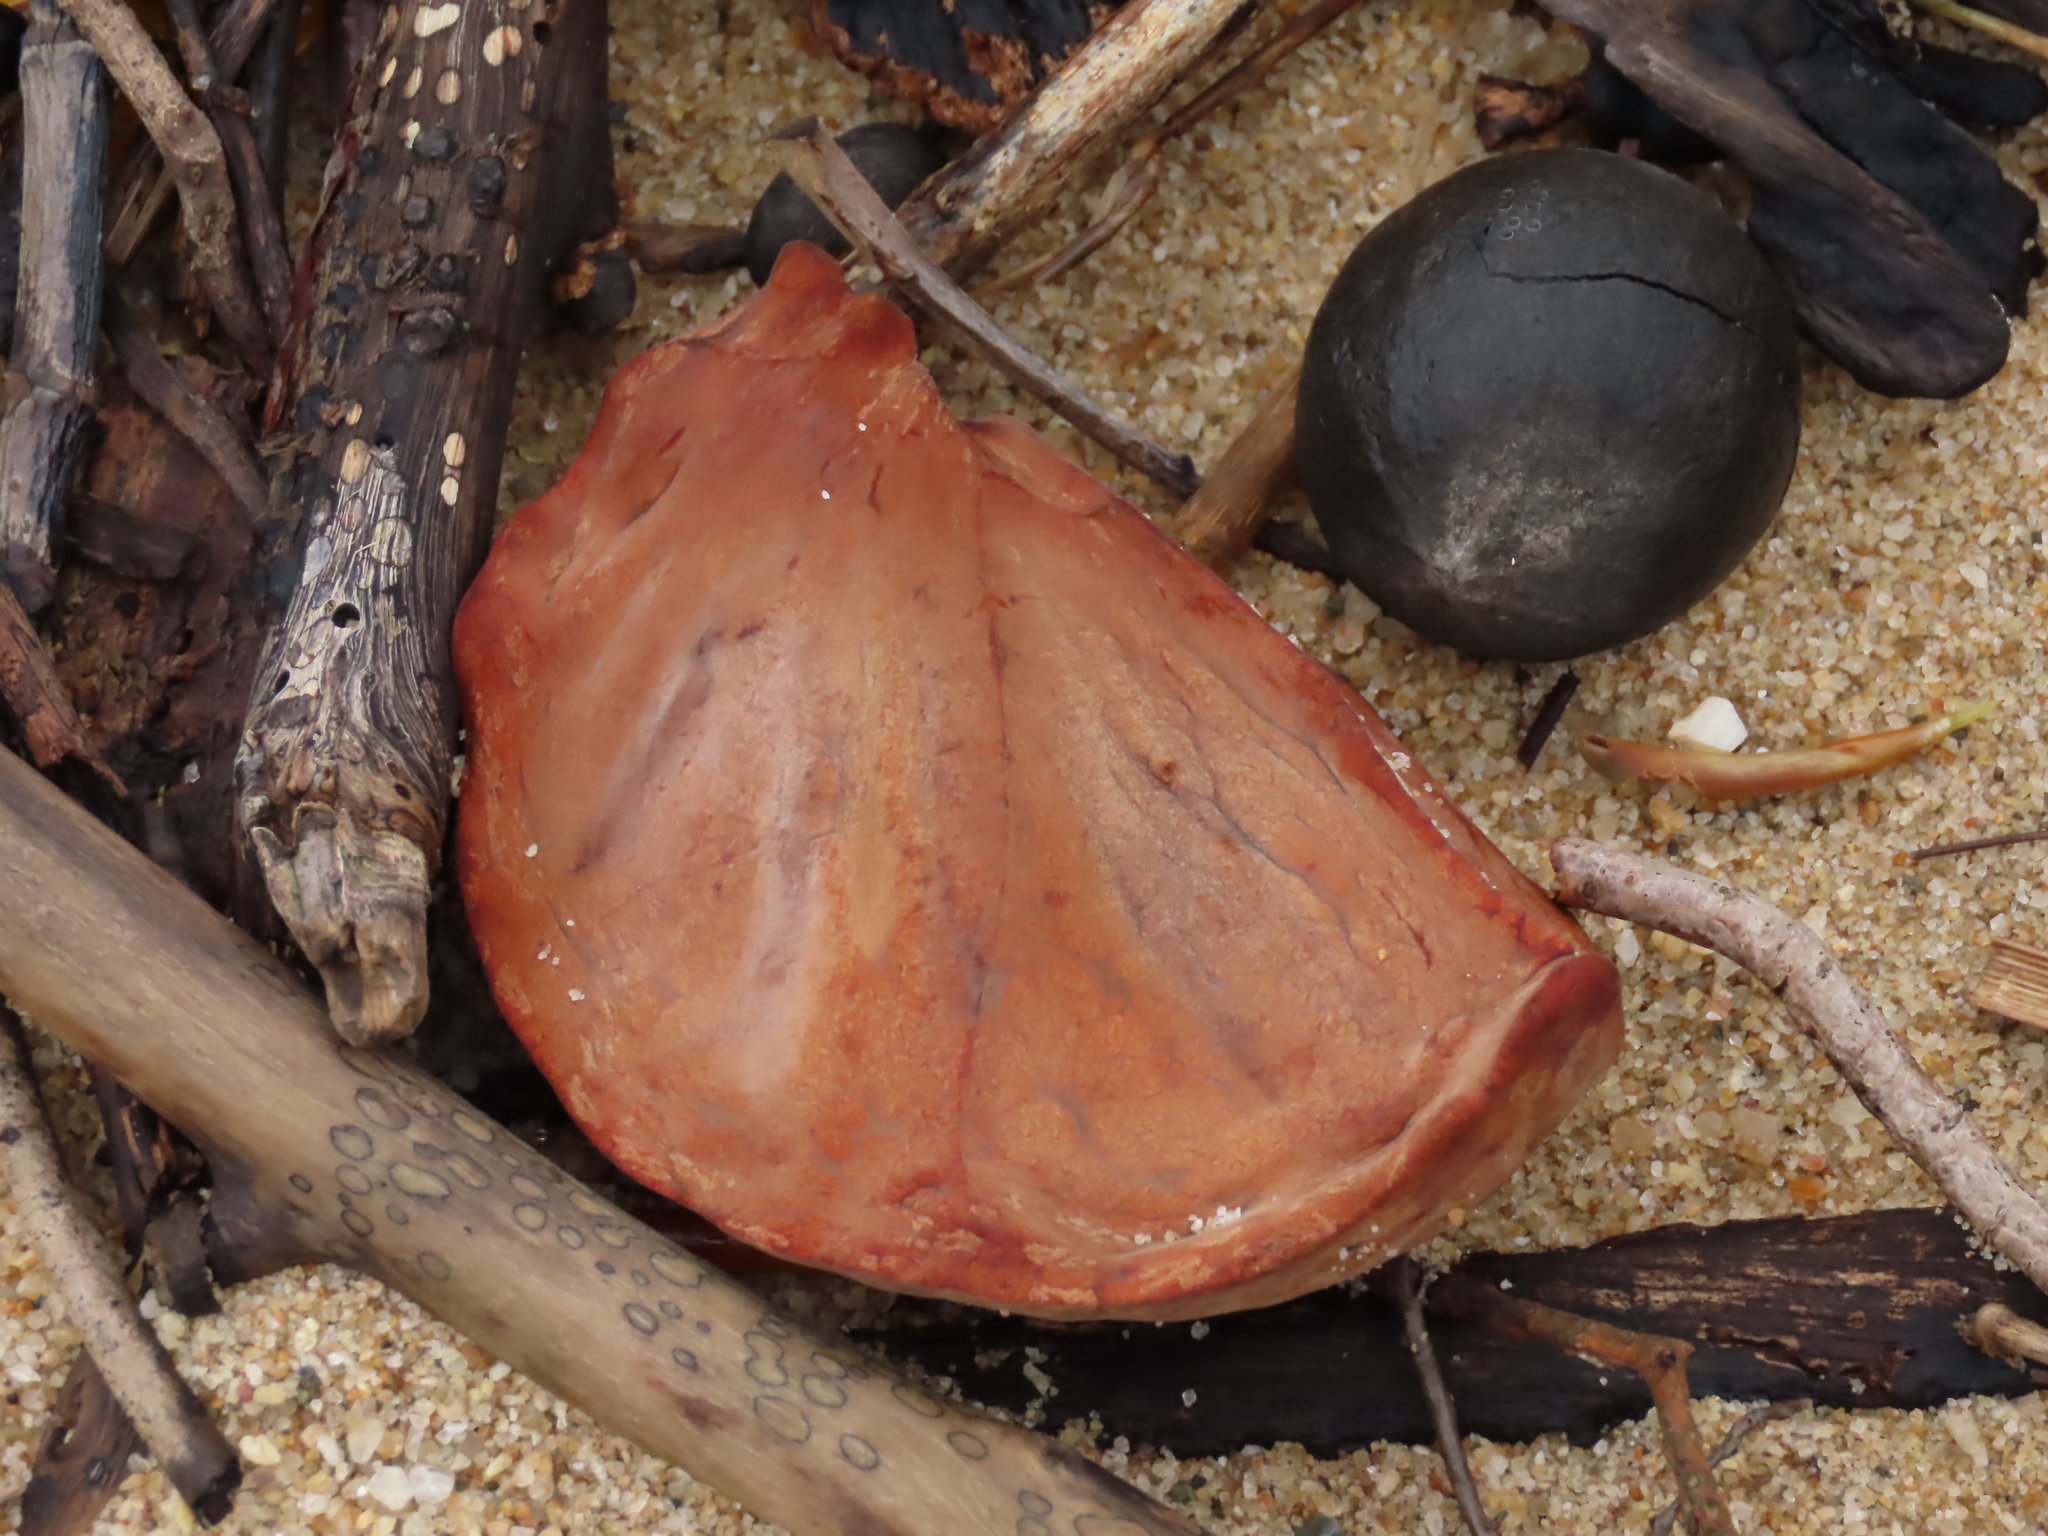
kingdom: Plantae
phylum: Tracheophyta
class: Magnoliopsida
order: Sapindales
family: Meliaceae
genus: Xylocarpus
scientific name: Xylocarpus granatum
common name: Apple mangrove
